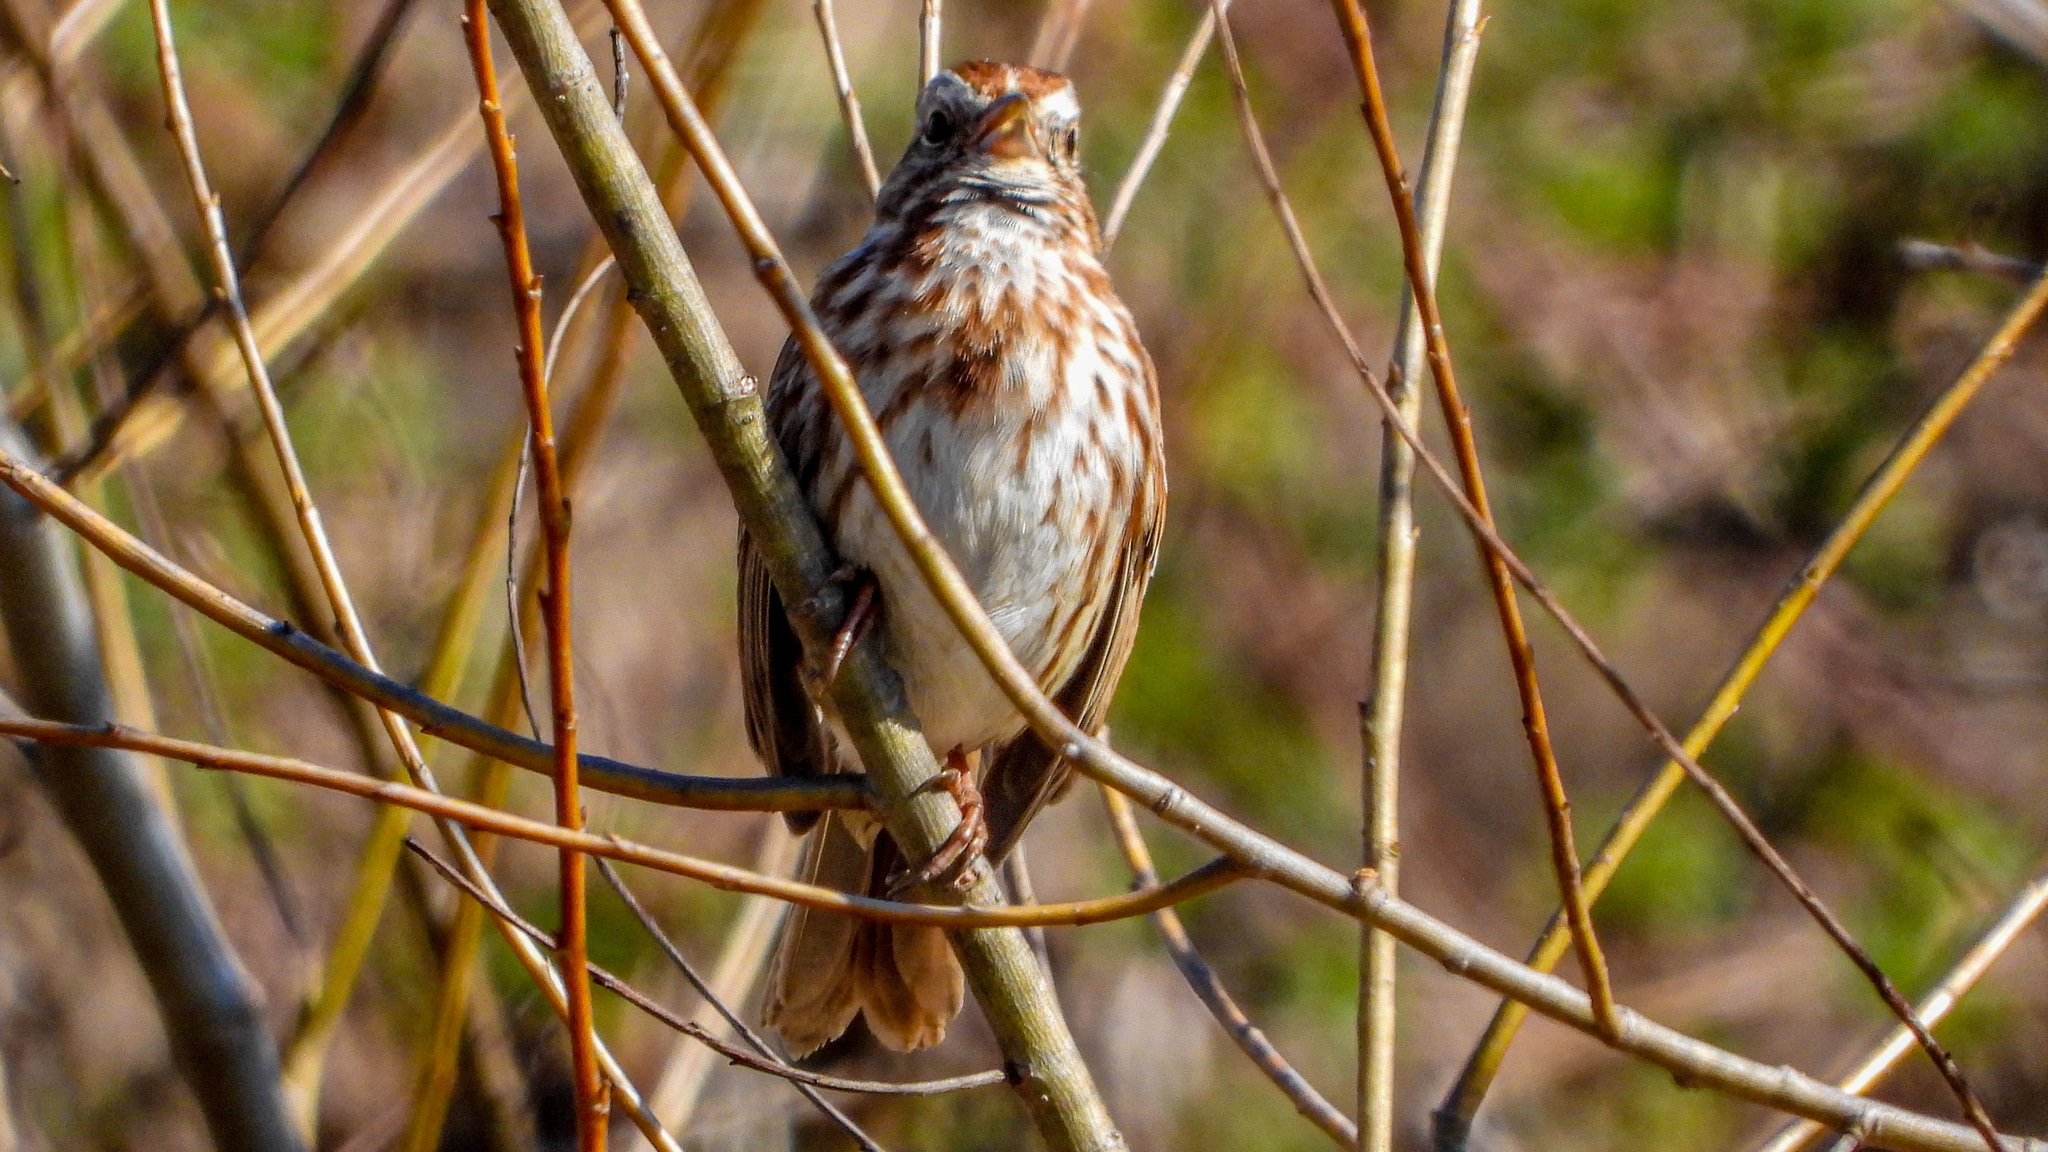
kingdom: Animalia
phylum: Chordata
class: Aves
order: Passeriformes
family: Passerellidae
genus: Melospiza
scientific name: Melospiza melodia
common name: Song sparrow
